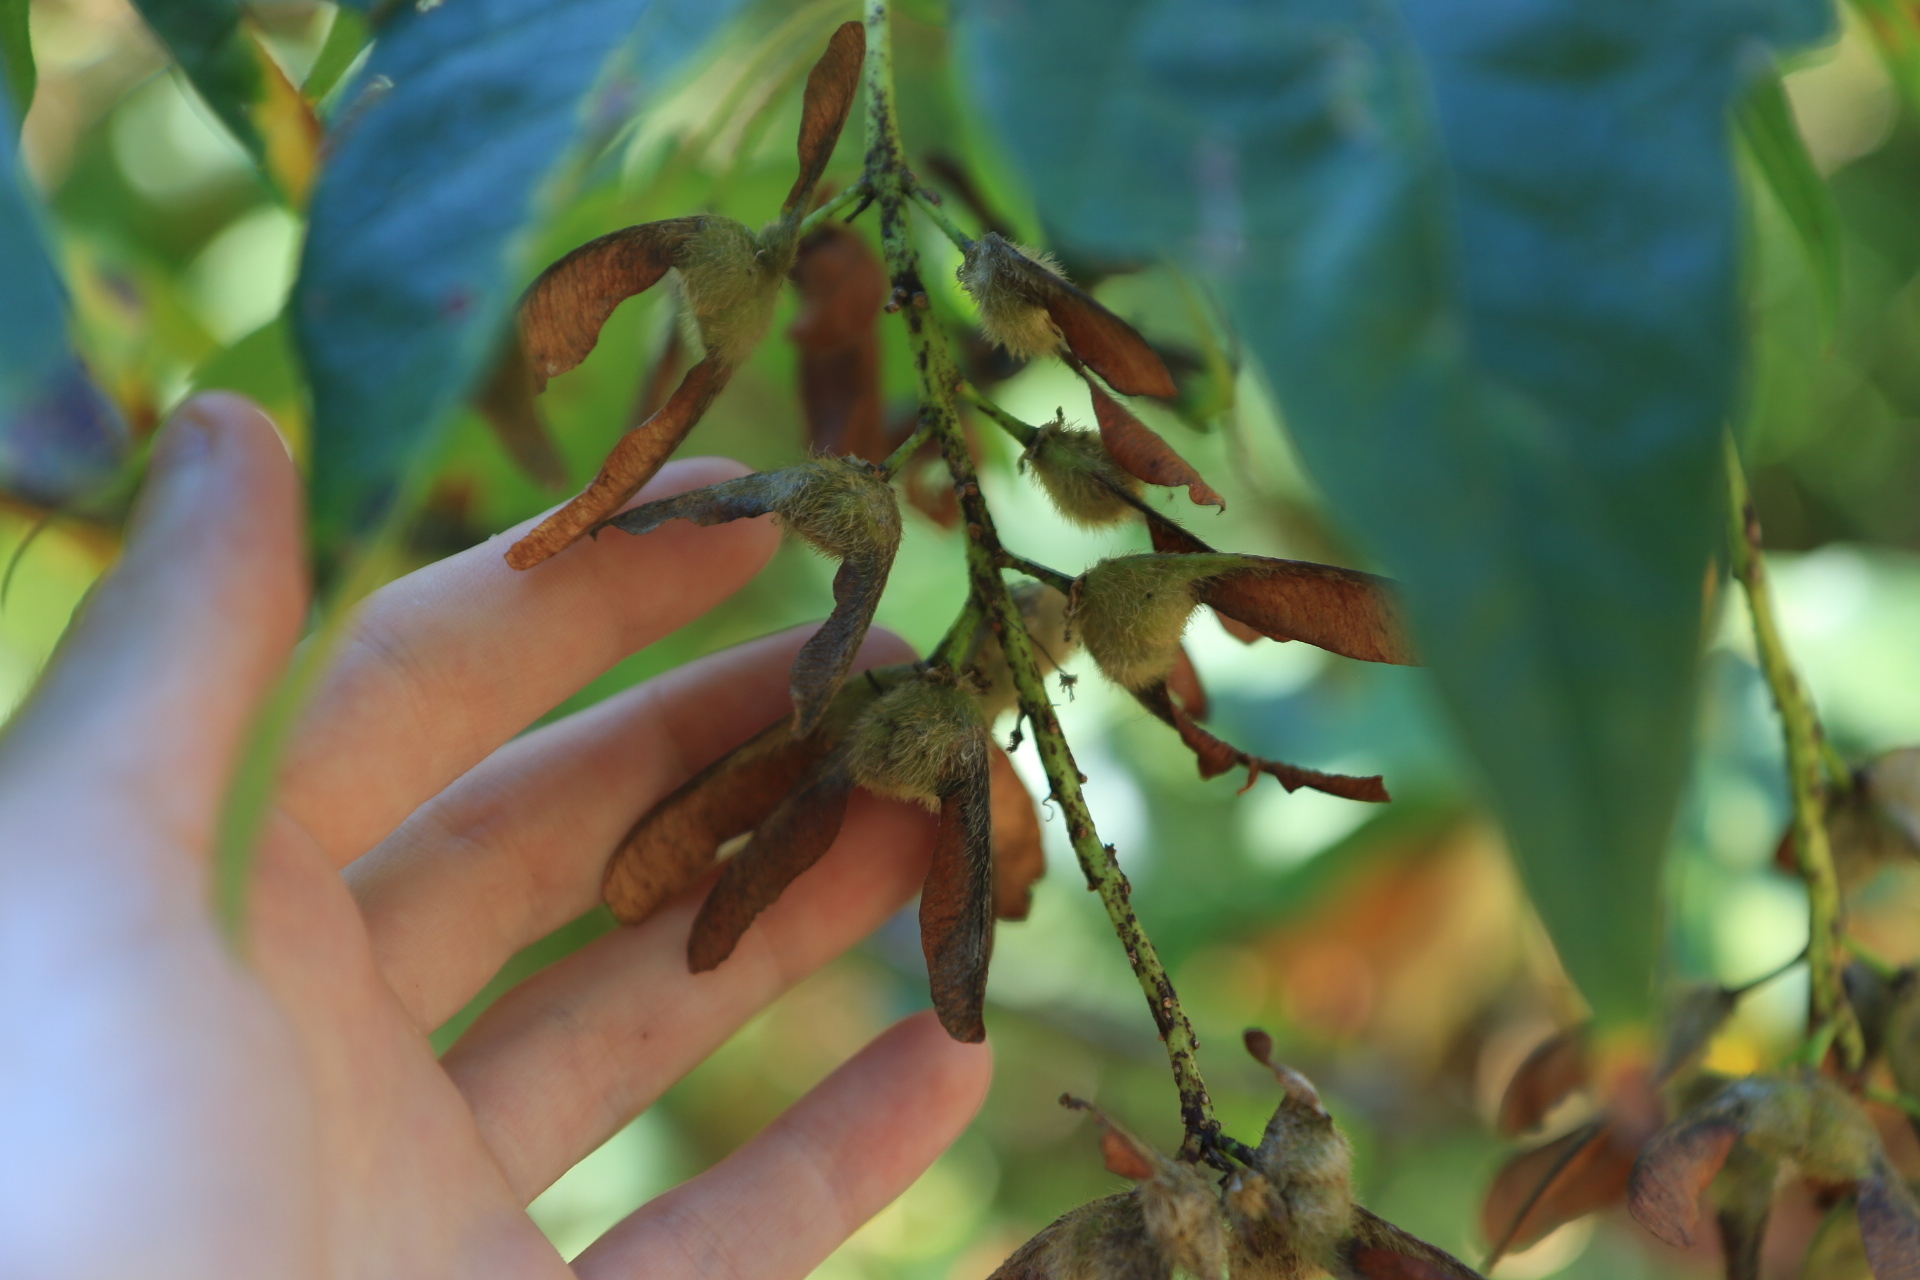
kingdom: Plantae
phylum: Tracheophyta
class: Magnoliopsida
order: Sapindales
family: Sapindaceae
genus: Acer
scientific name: Acer macrophyllum
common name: Oregon maple
